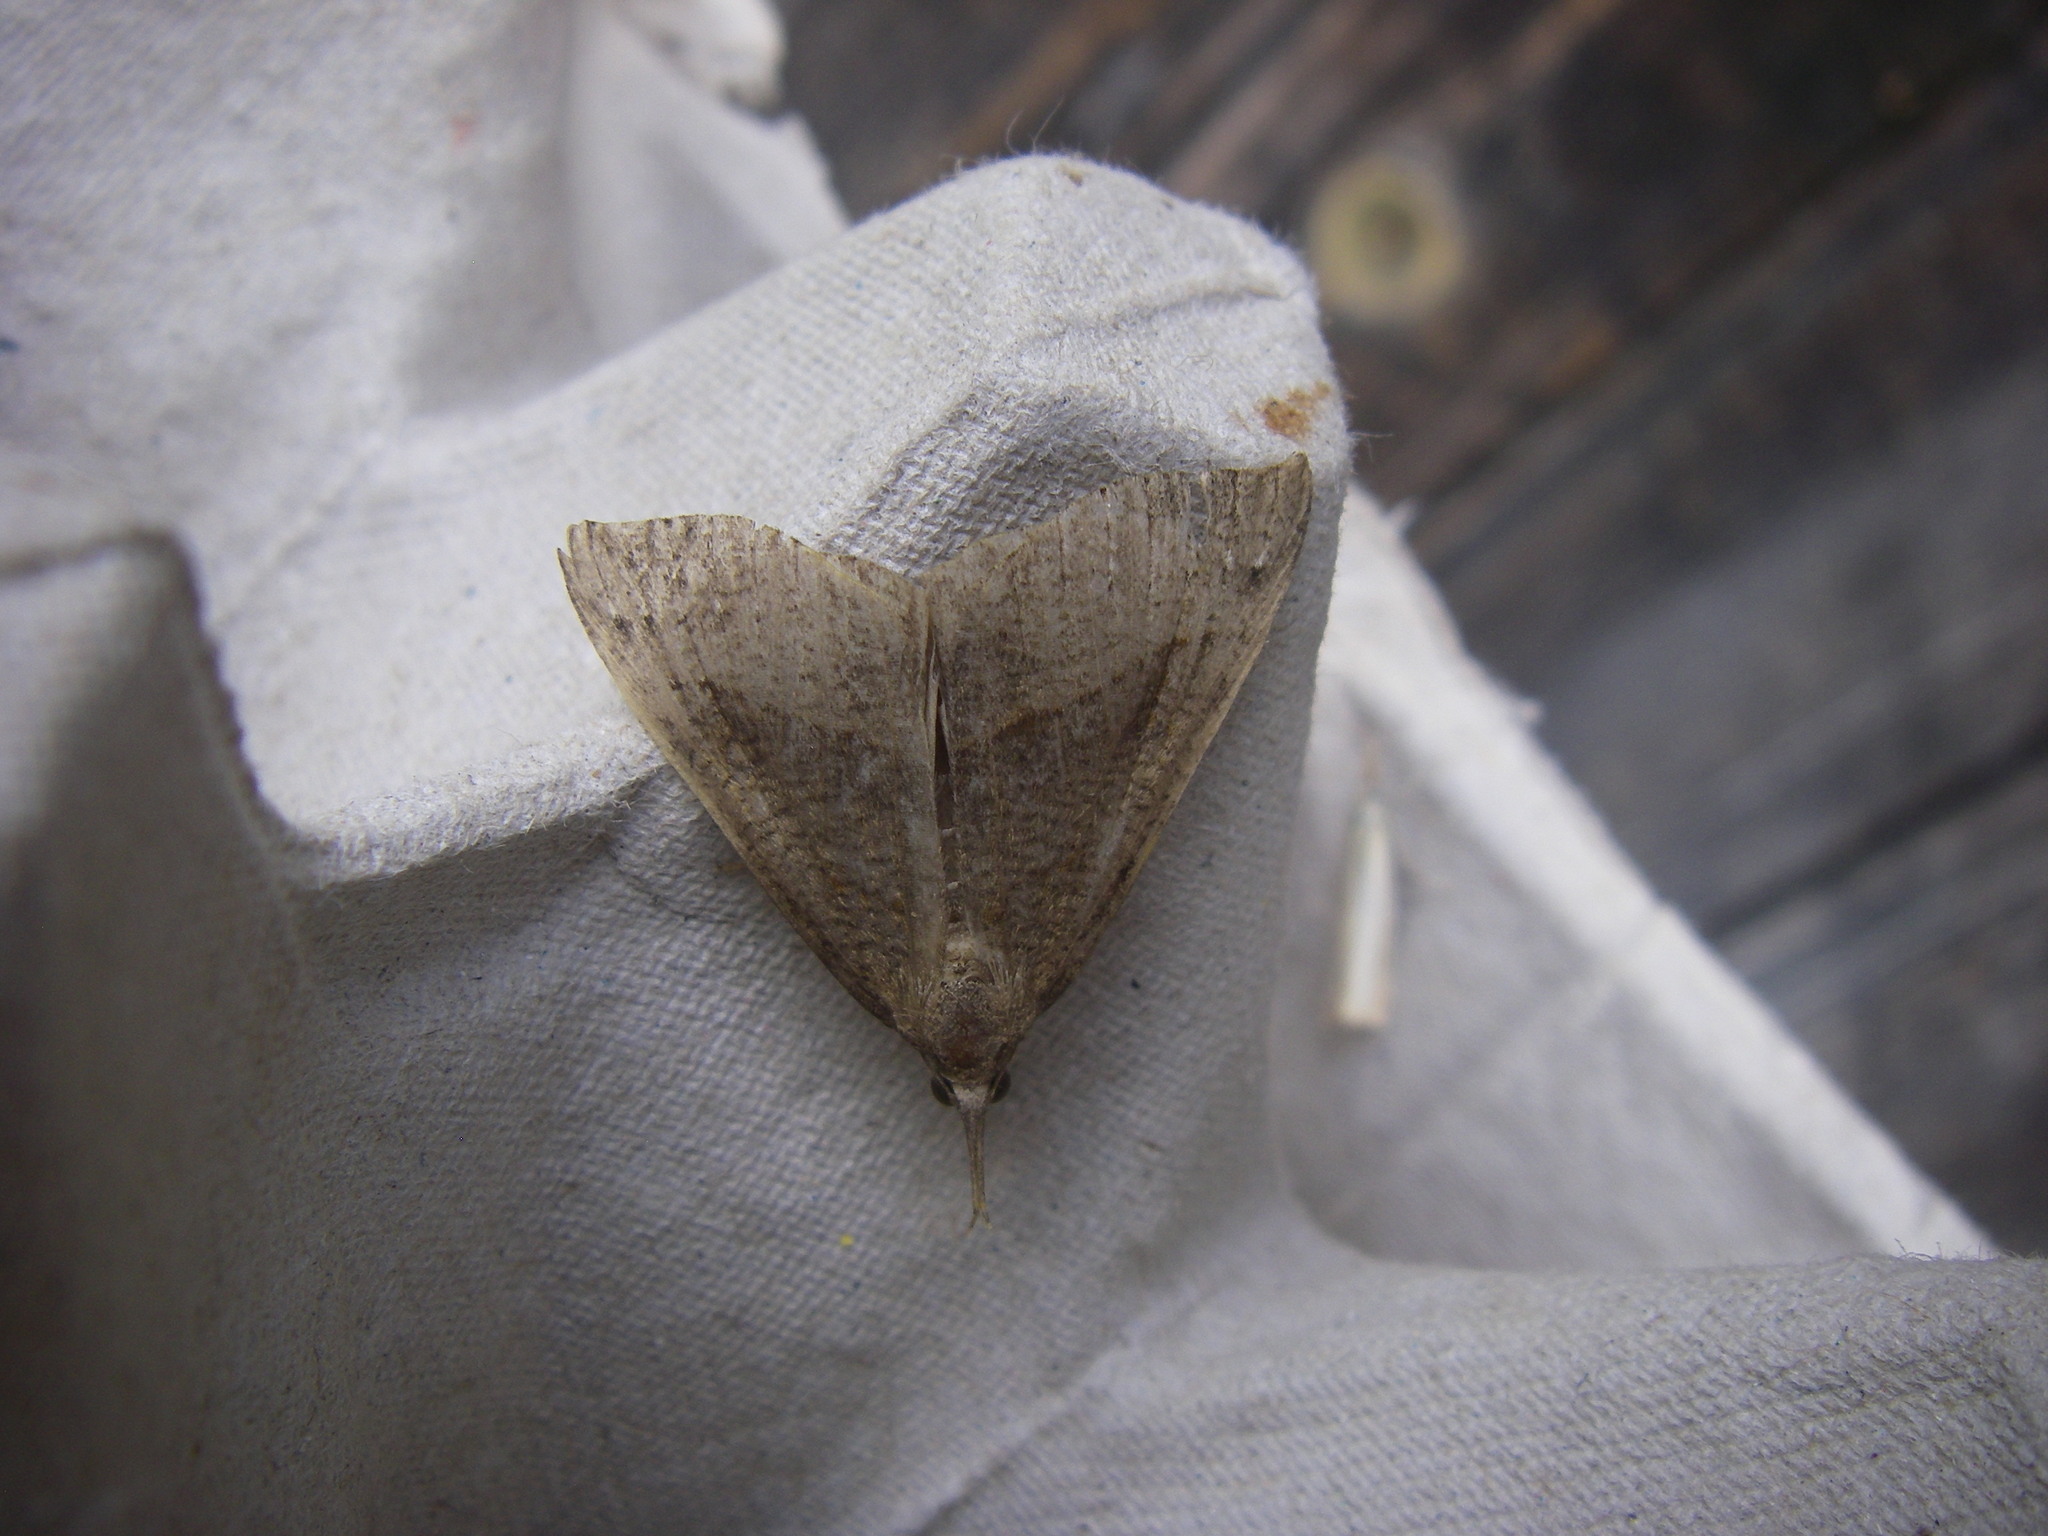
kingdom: Animalia
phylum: Arthropoda
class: Insecta
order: Lepidoptera
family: Erebidae
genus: Hypena
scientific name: Hypena proboscidalis
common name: Snout
